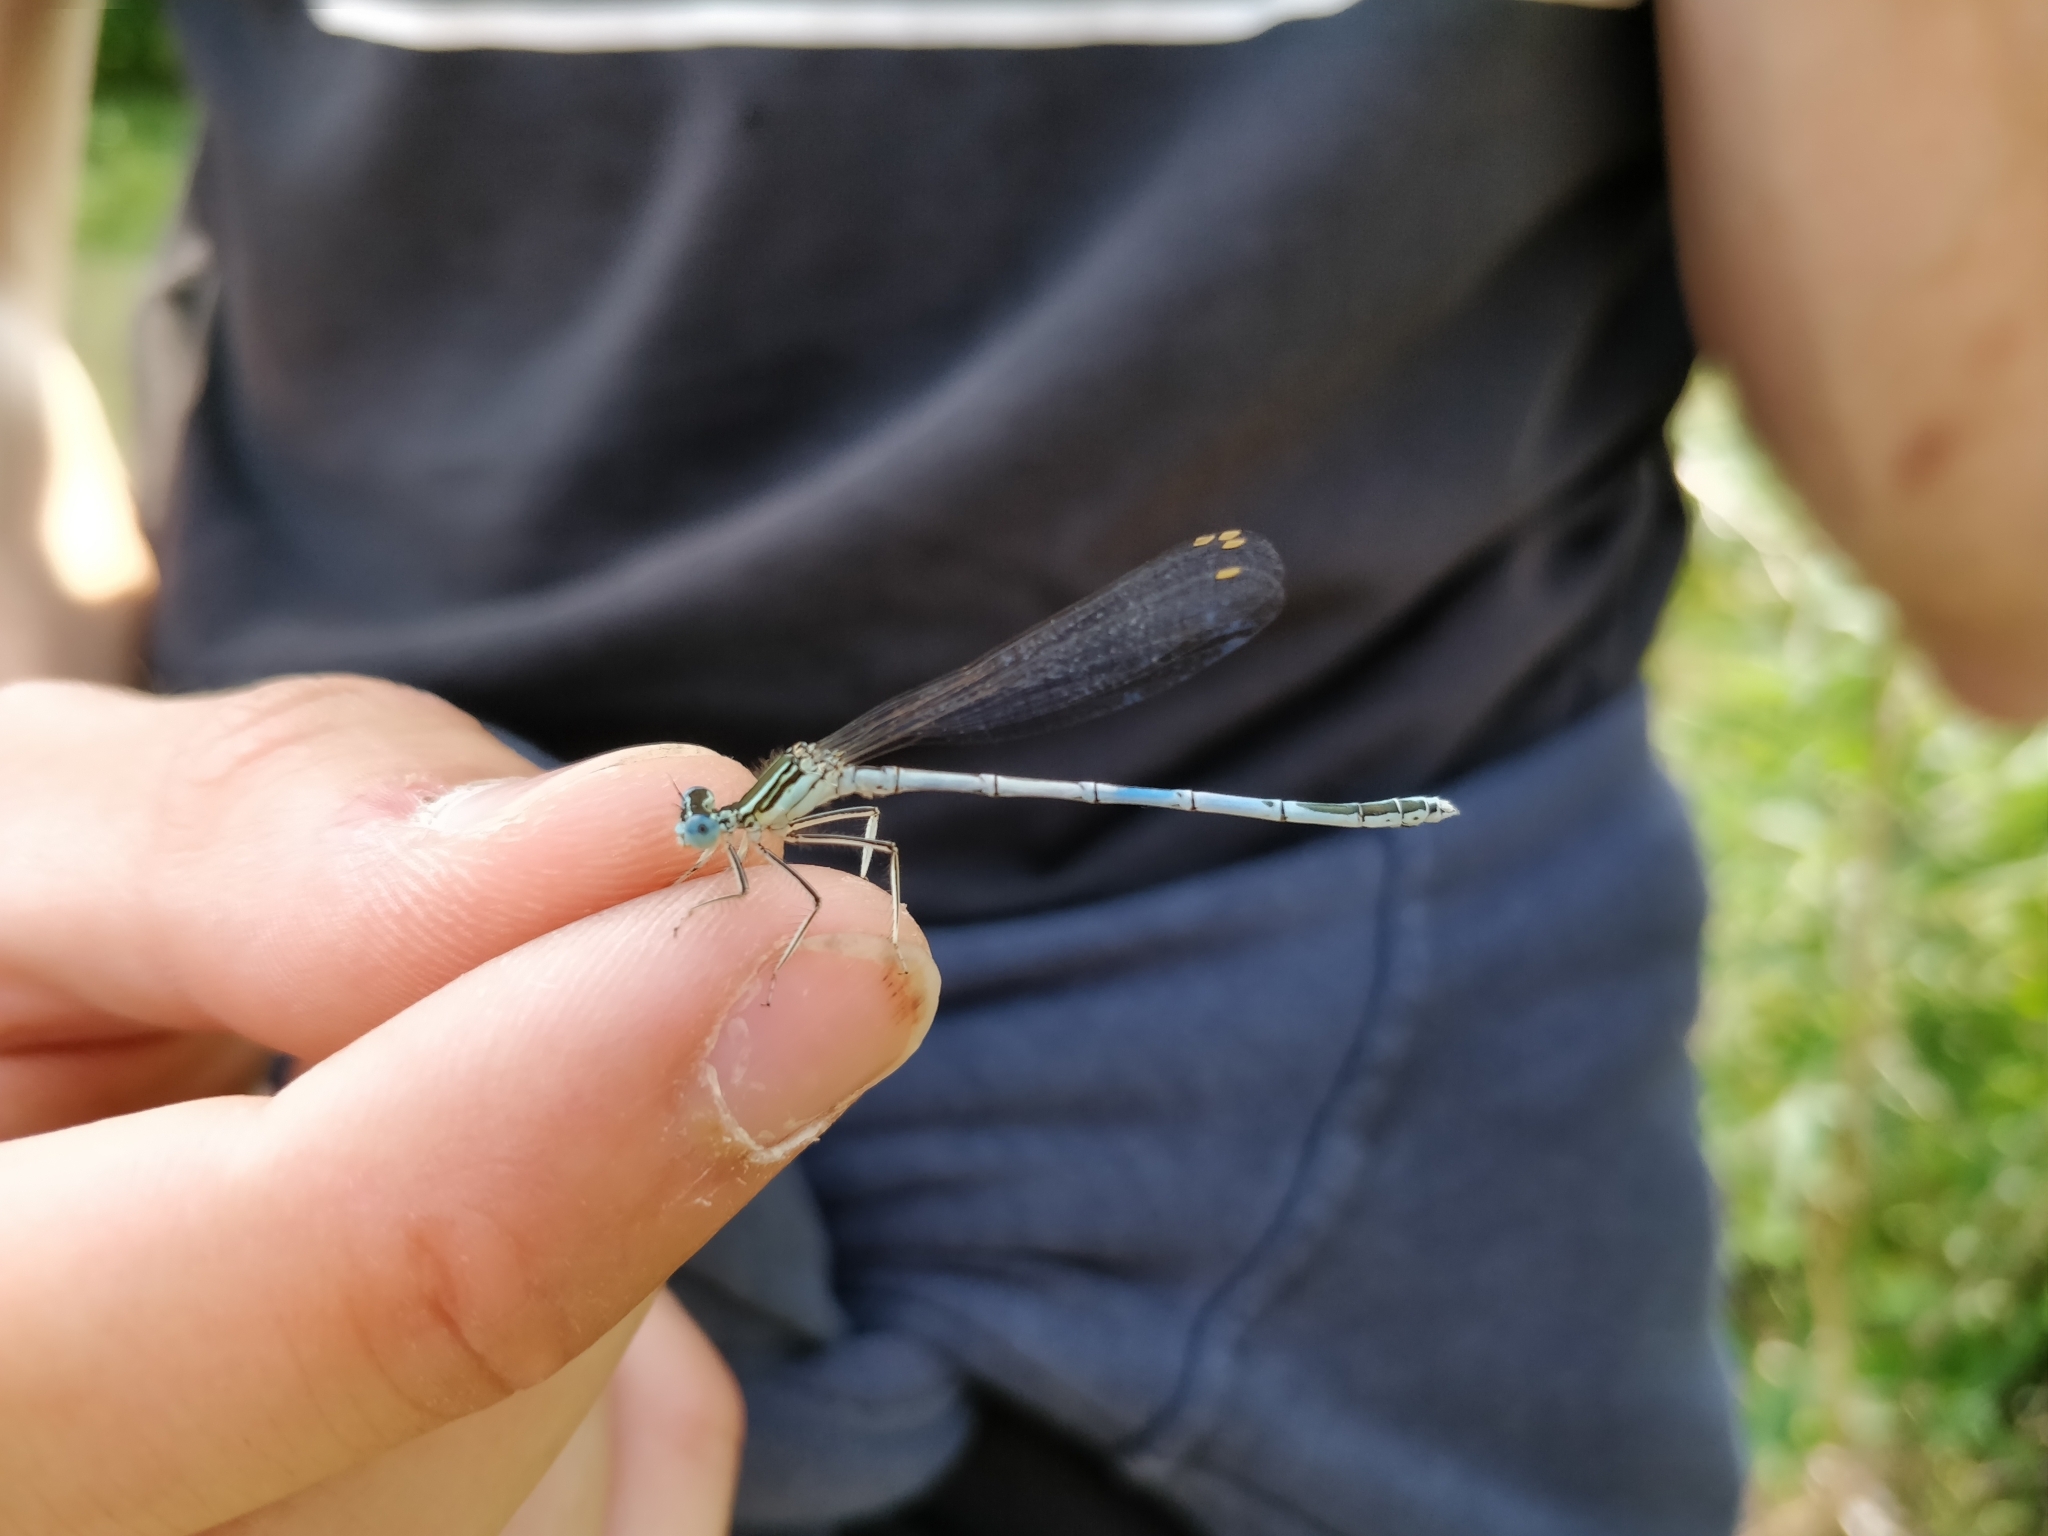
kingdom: Animalia
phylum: Arthropoda
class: Insecta
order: Odonata
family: Platycnemididae
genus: Platycnemis
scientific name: Platycnemis pennipes
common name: White-legged damselfly
